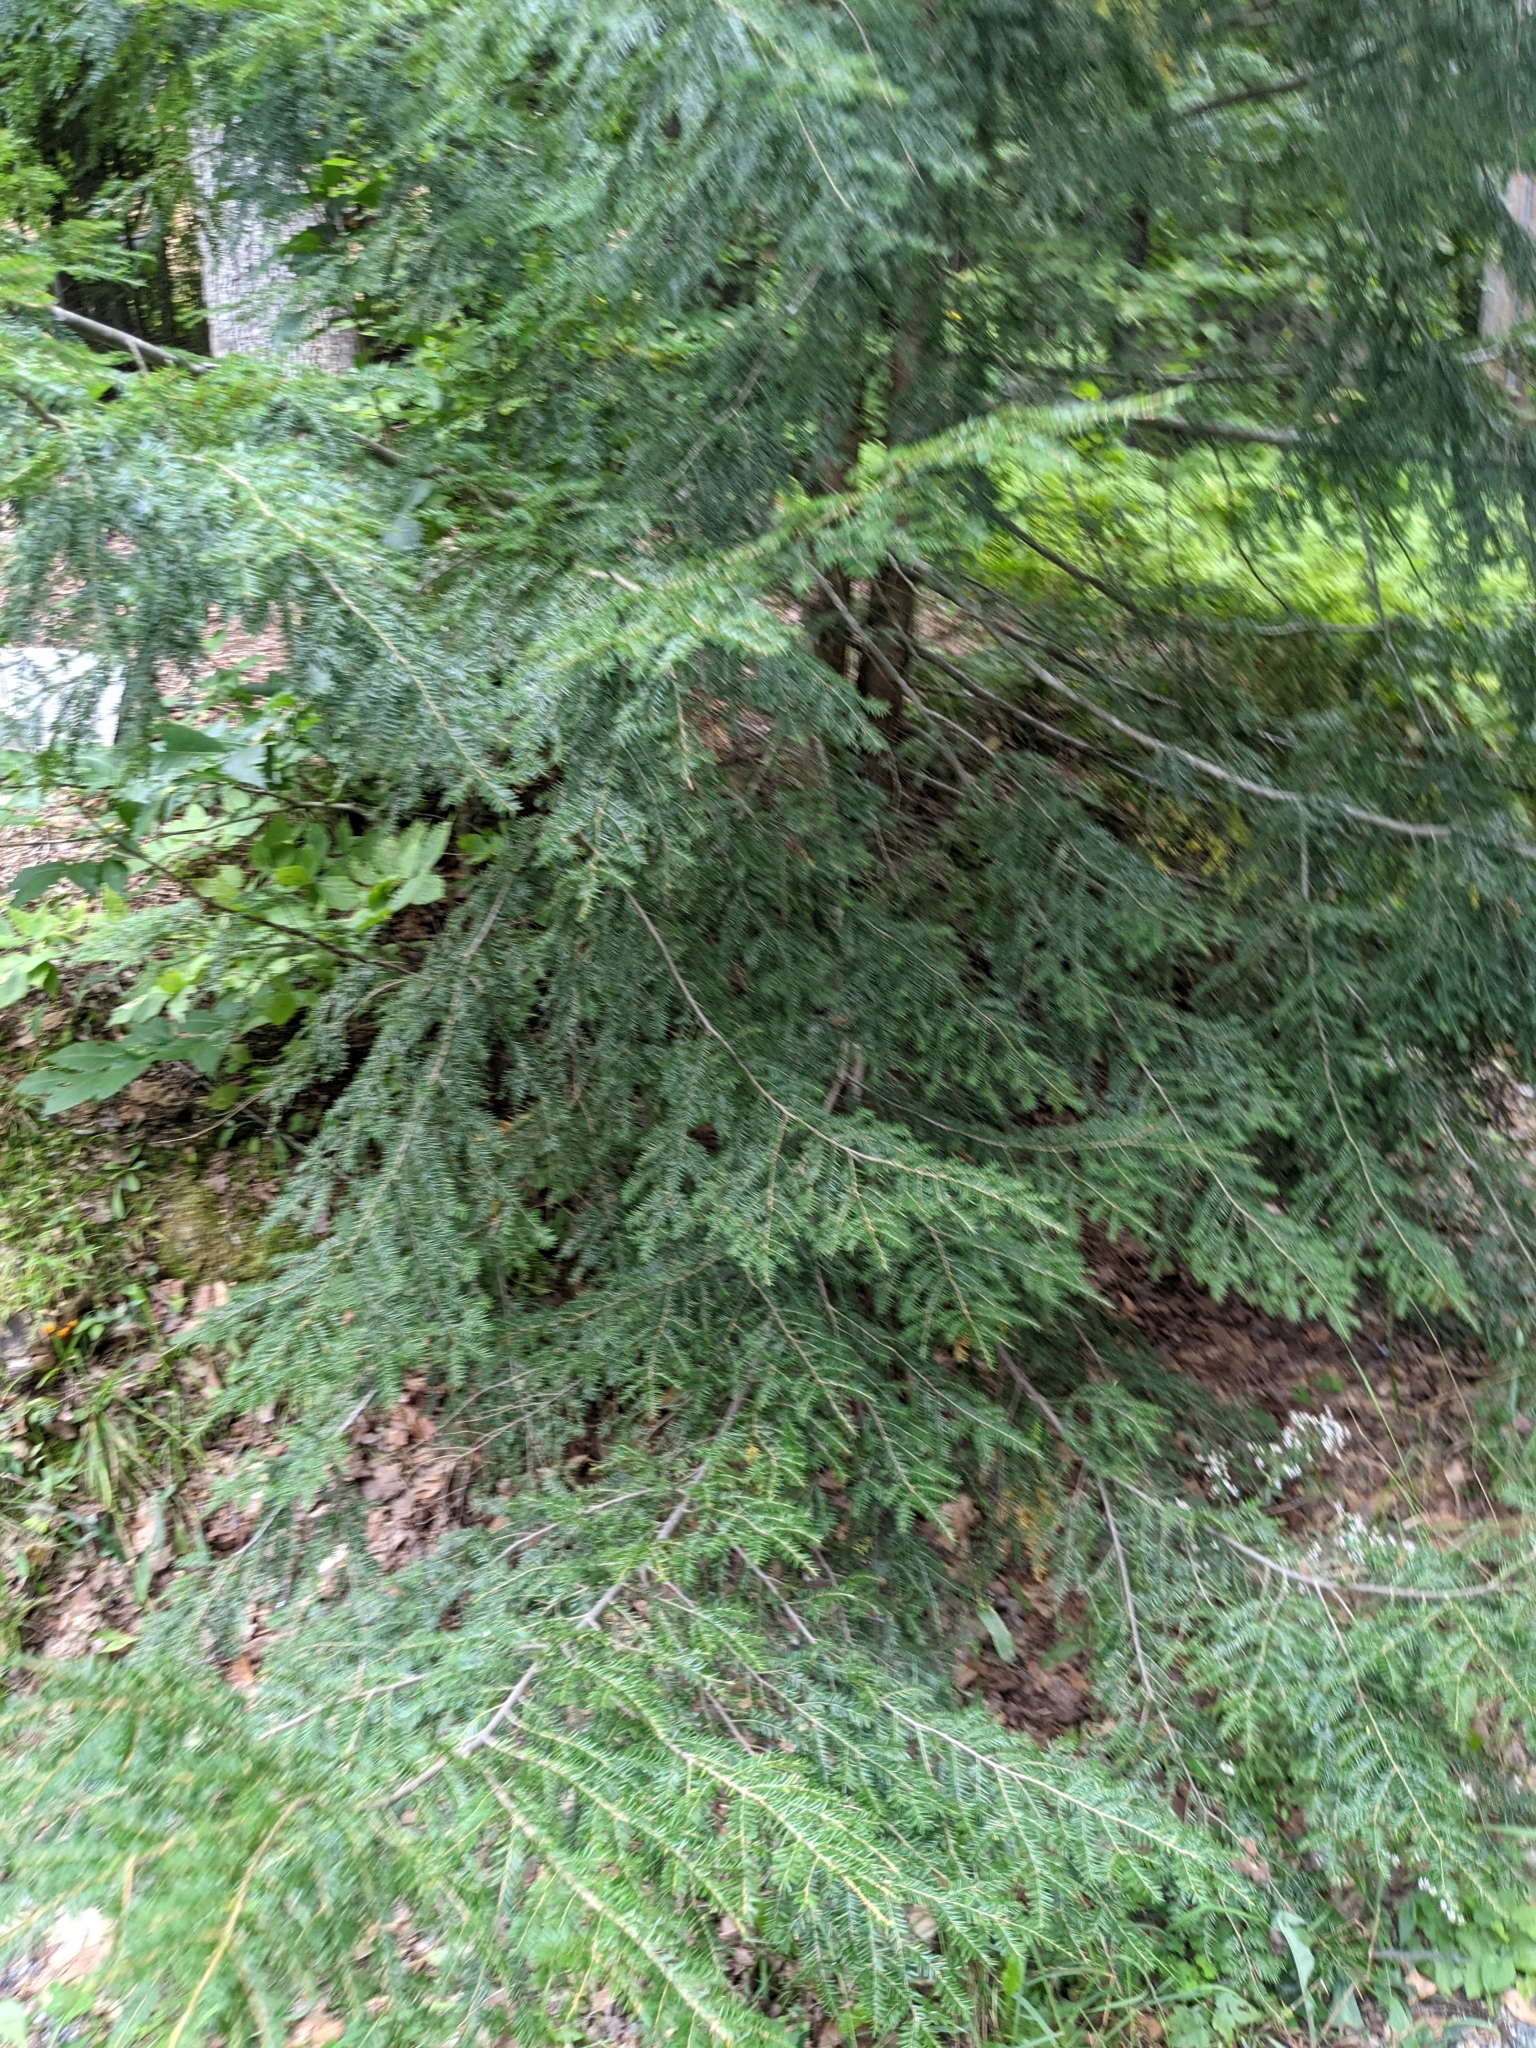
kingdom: Plantae
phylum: Tracheophyta
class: Pinopsida
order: Pinales
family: Pinaceae
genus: Tsuga
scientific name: Tsuga canadensis
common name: Eastern hemlock
